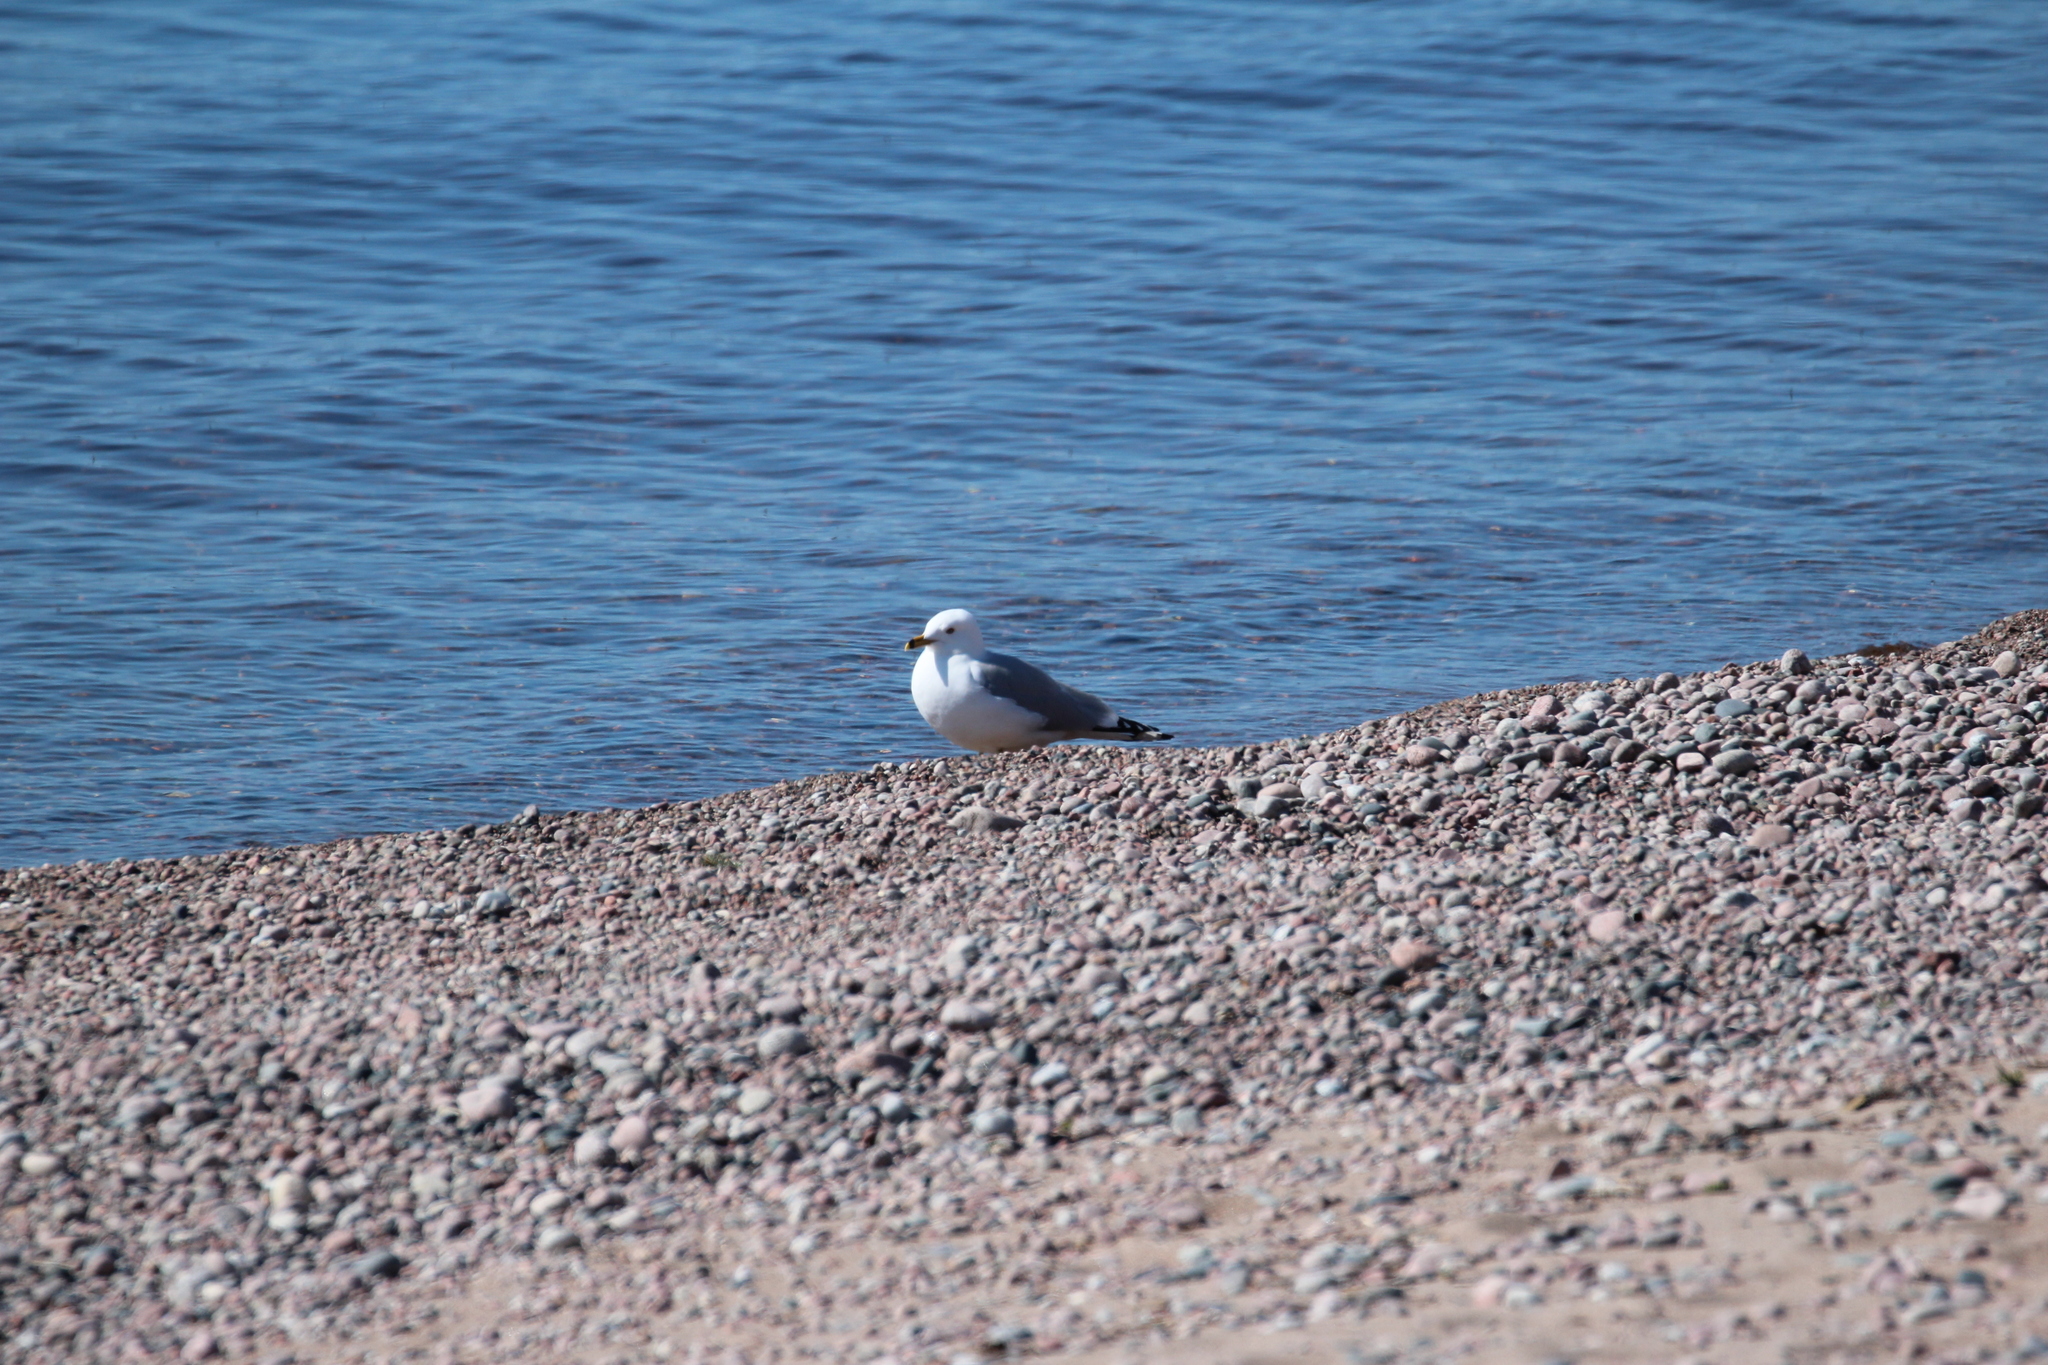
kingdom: Animalia
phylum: Chordata
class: Aves
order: Charadriiformes
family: Laridae
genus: Larus
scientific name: Larus delawarensis
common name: Ring-billed gull
